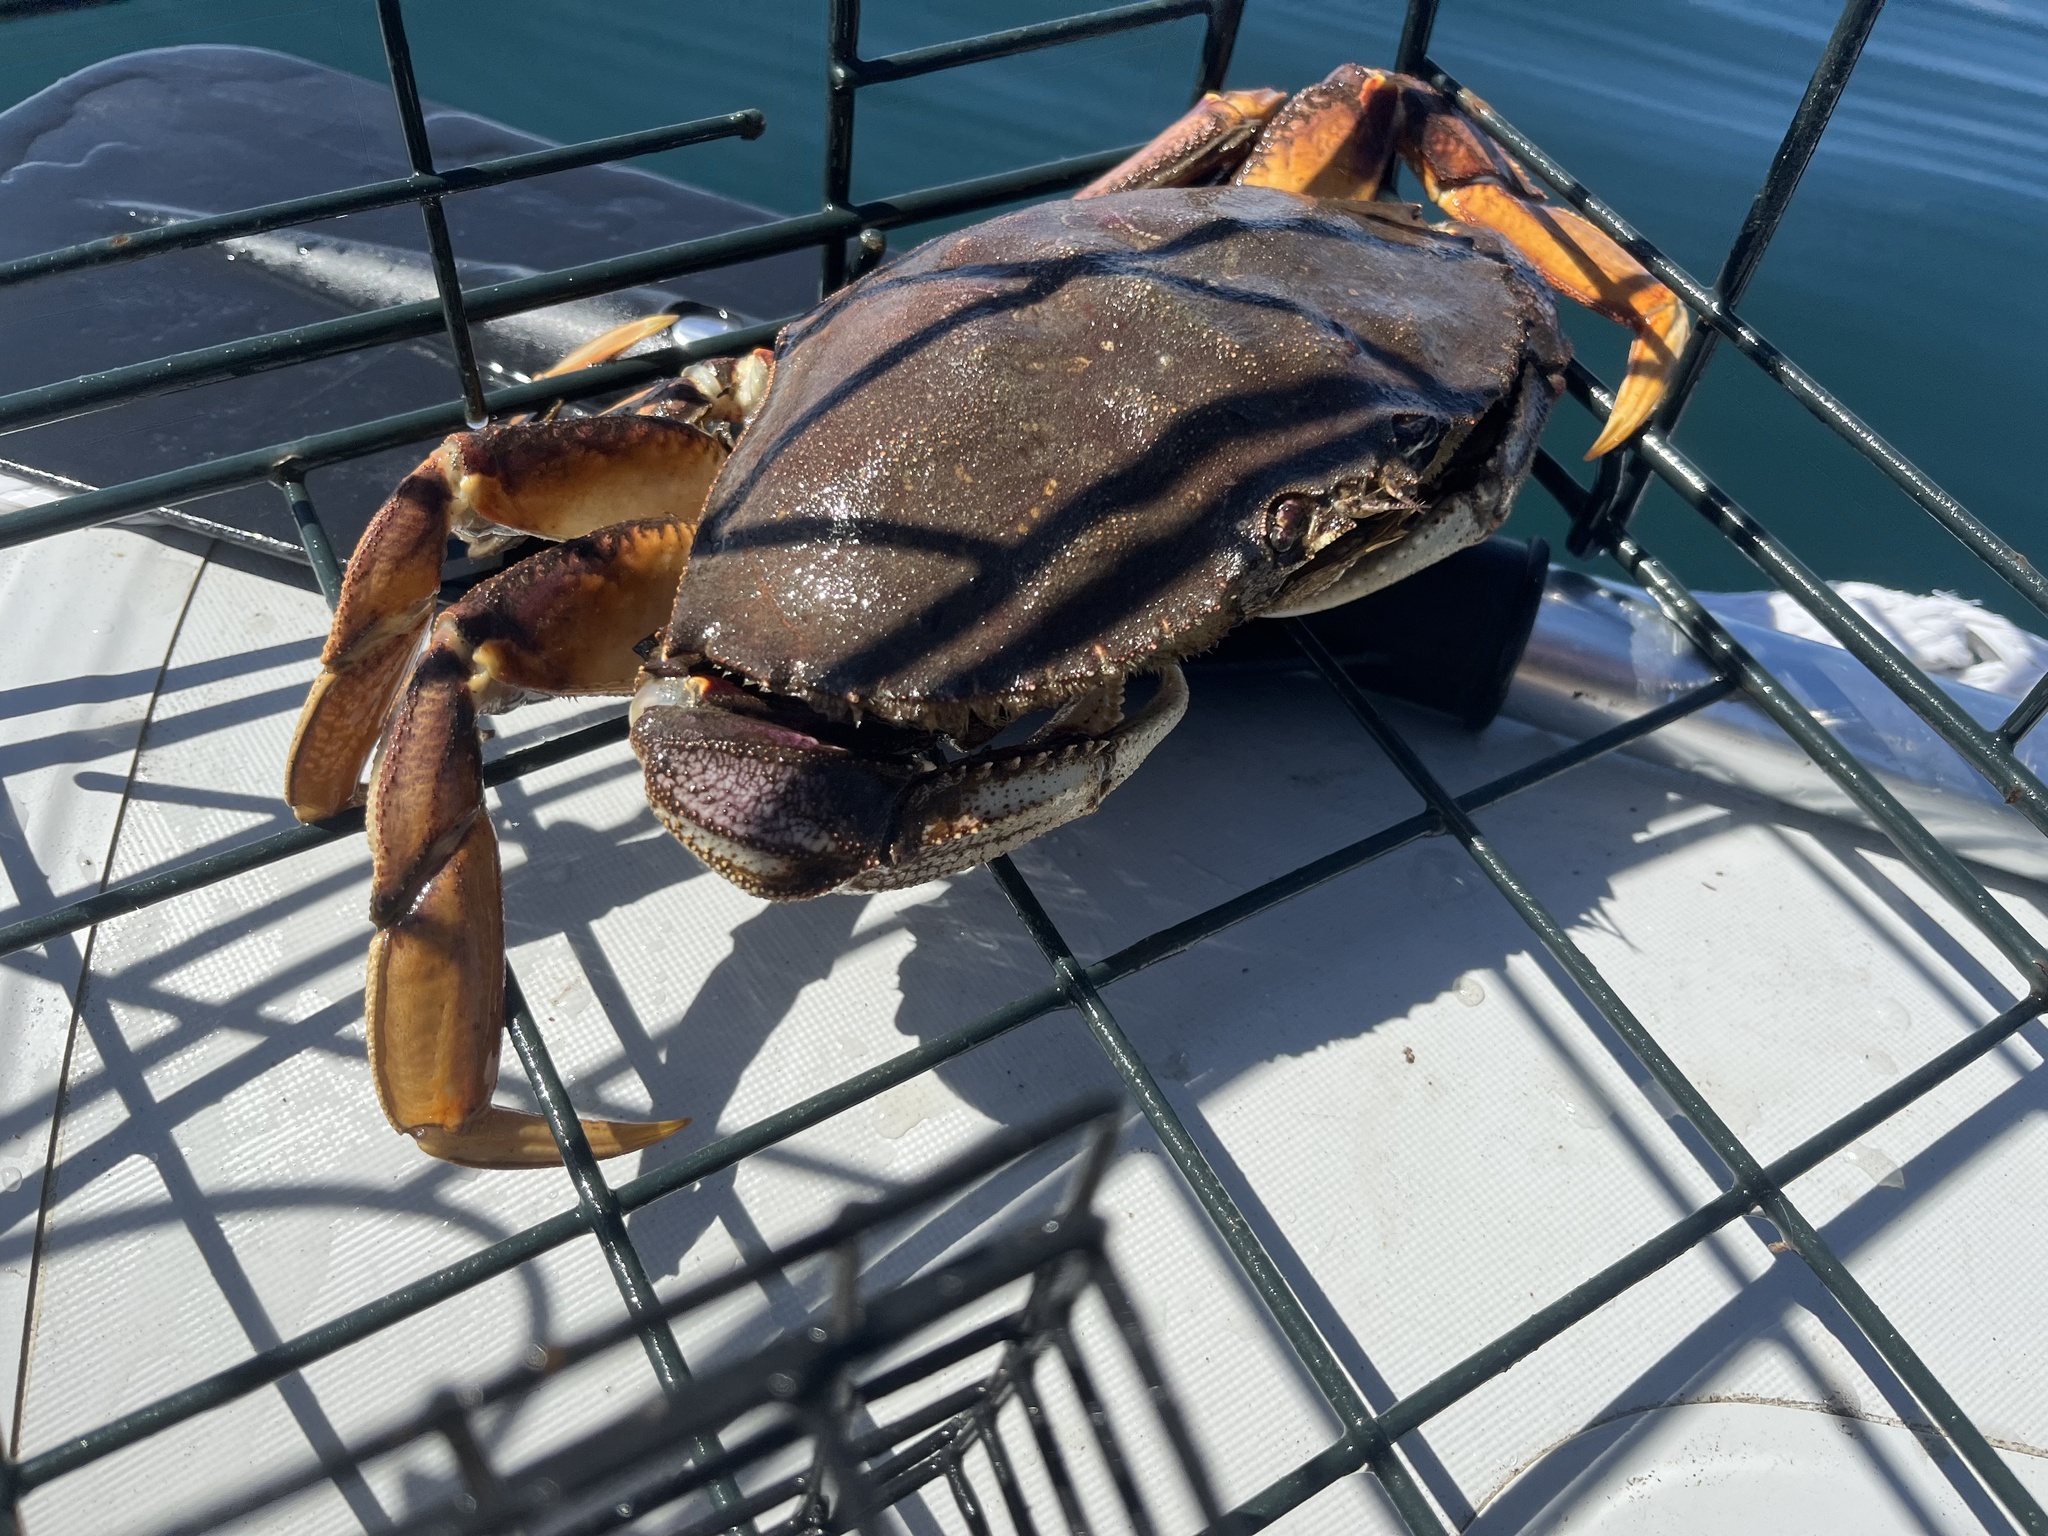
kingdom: Animalia
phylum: Arthropoda
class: Malacostraca
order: Decapoda
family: Cancridae
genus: Metacarcinus
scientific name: Metacarcinus magister
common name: Californian crab
